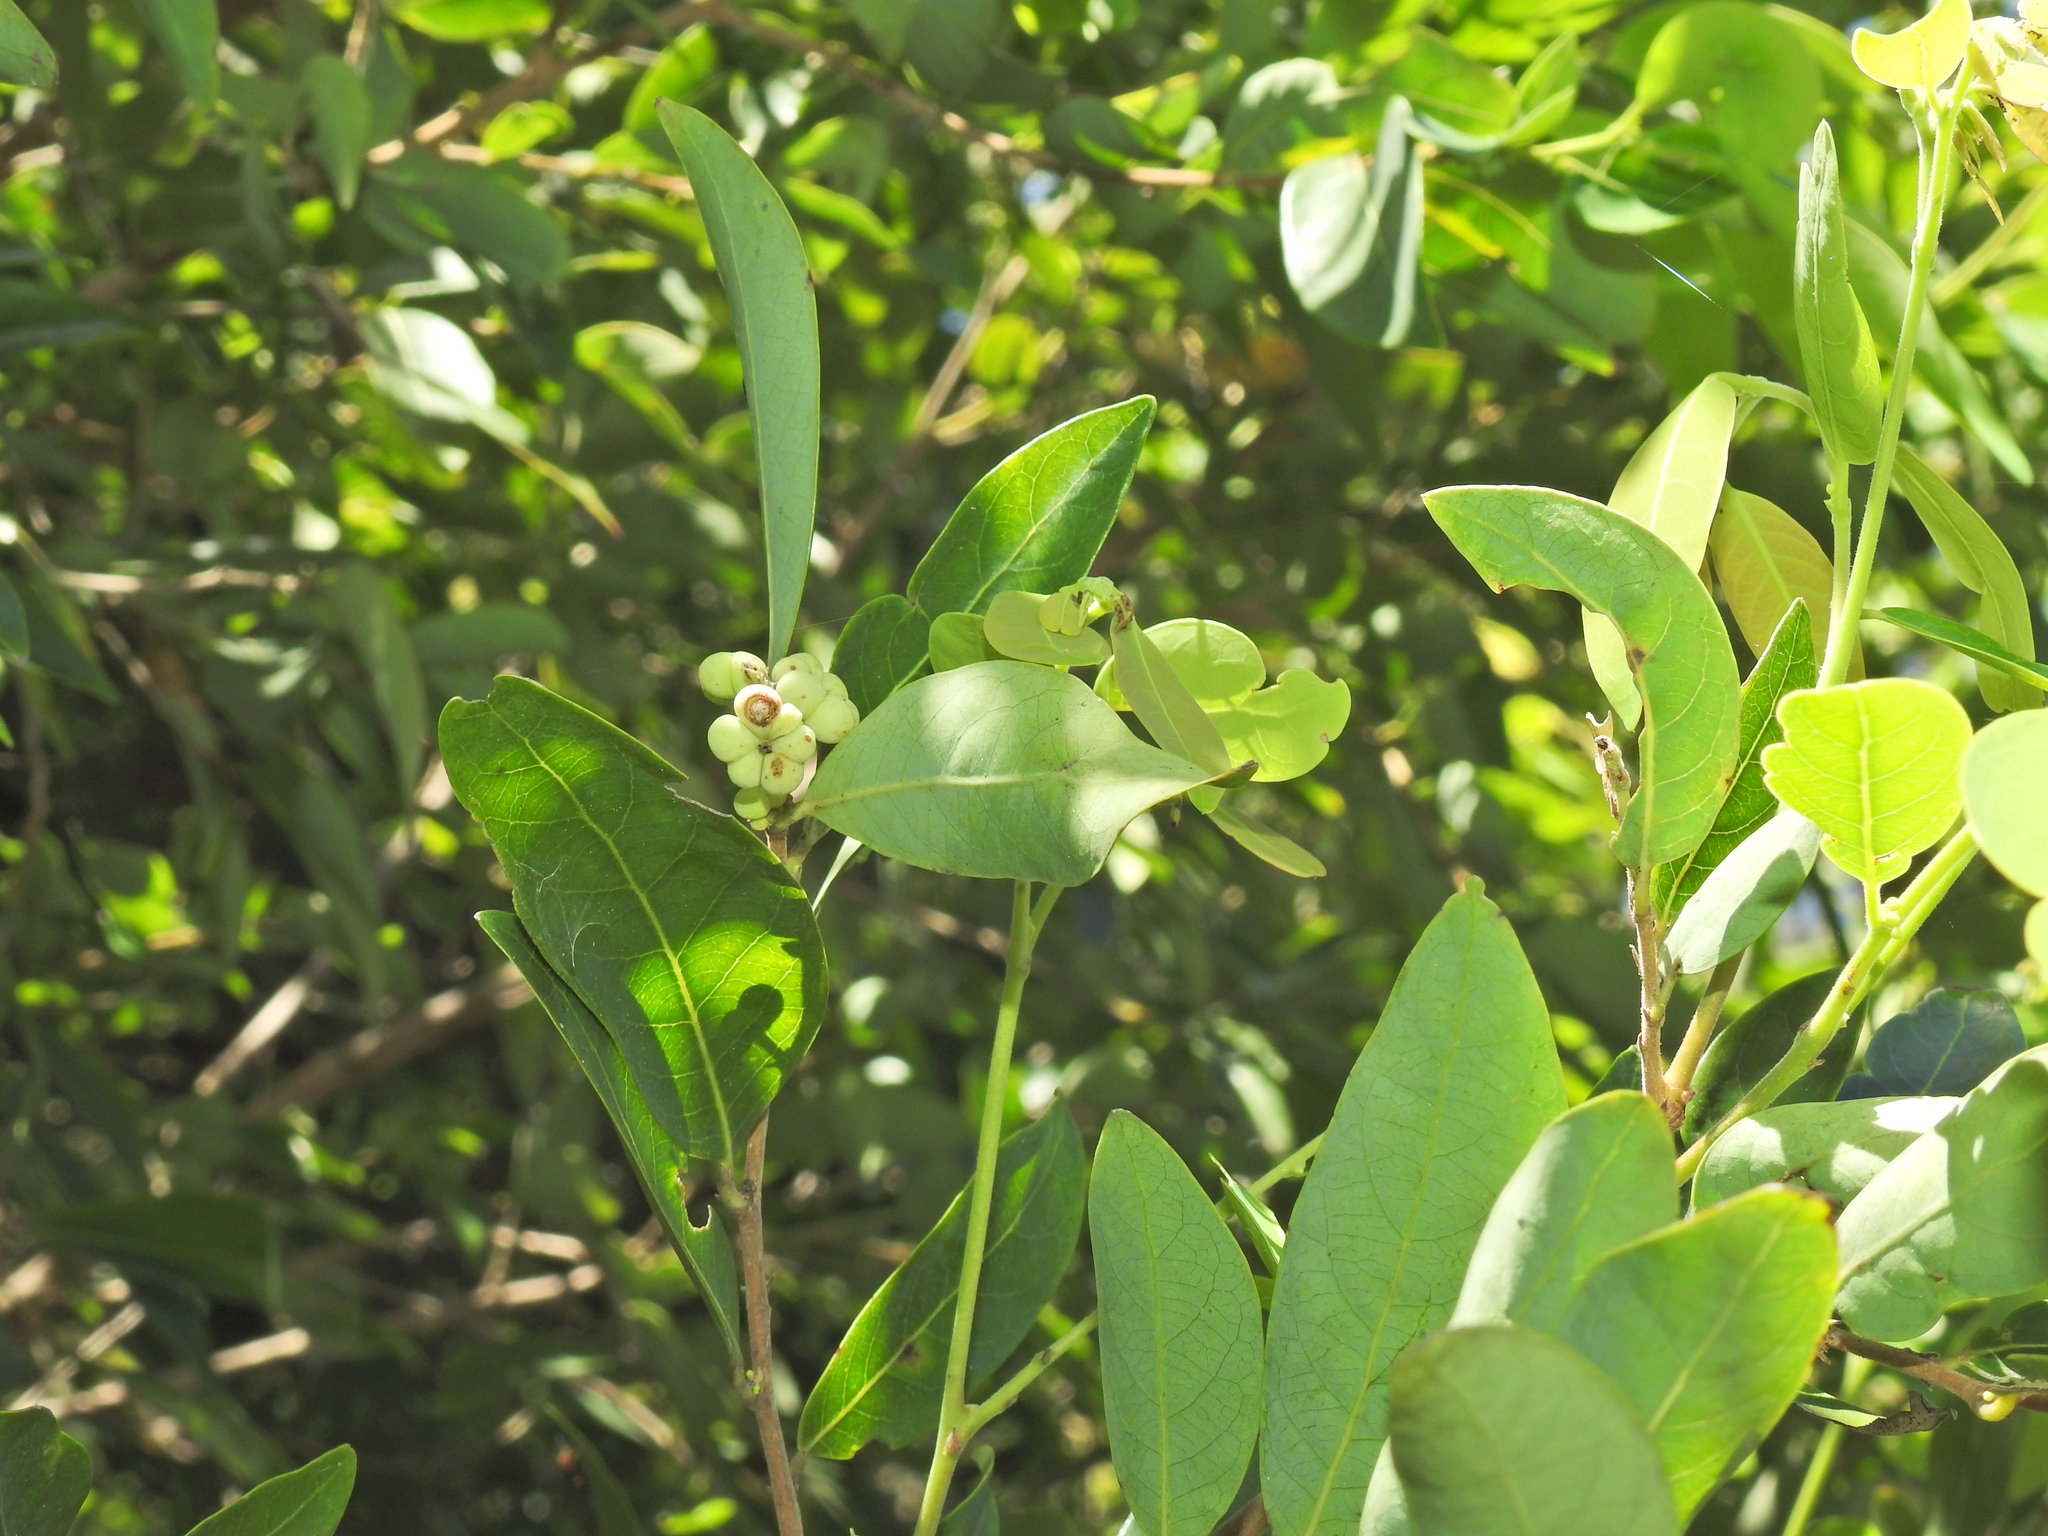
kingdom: Plantae
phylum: Tracheophyta
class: Magnoliopsida
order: Malpighiales
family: Phyllanthaceae
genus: Glochidion
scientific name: Glochidion lobocarpum
